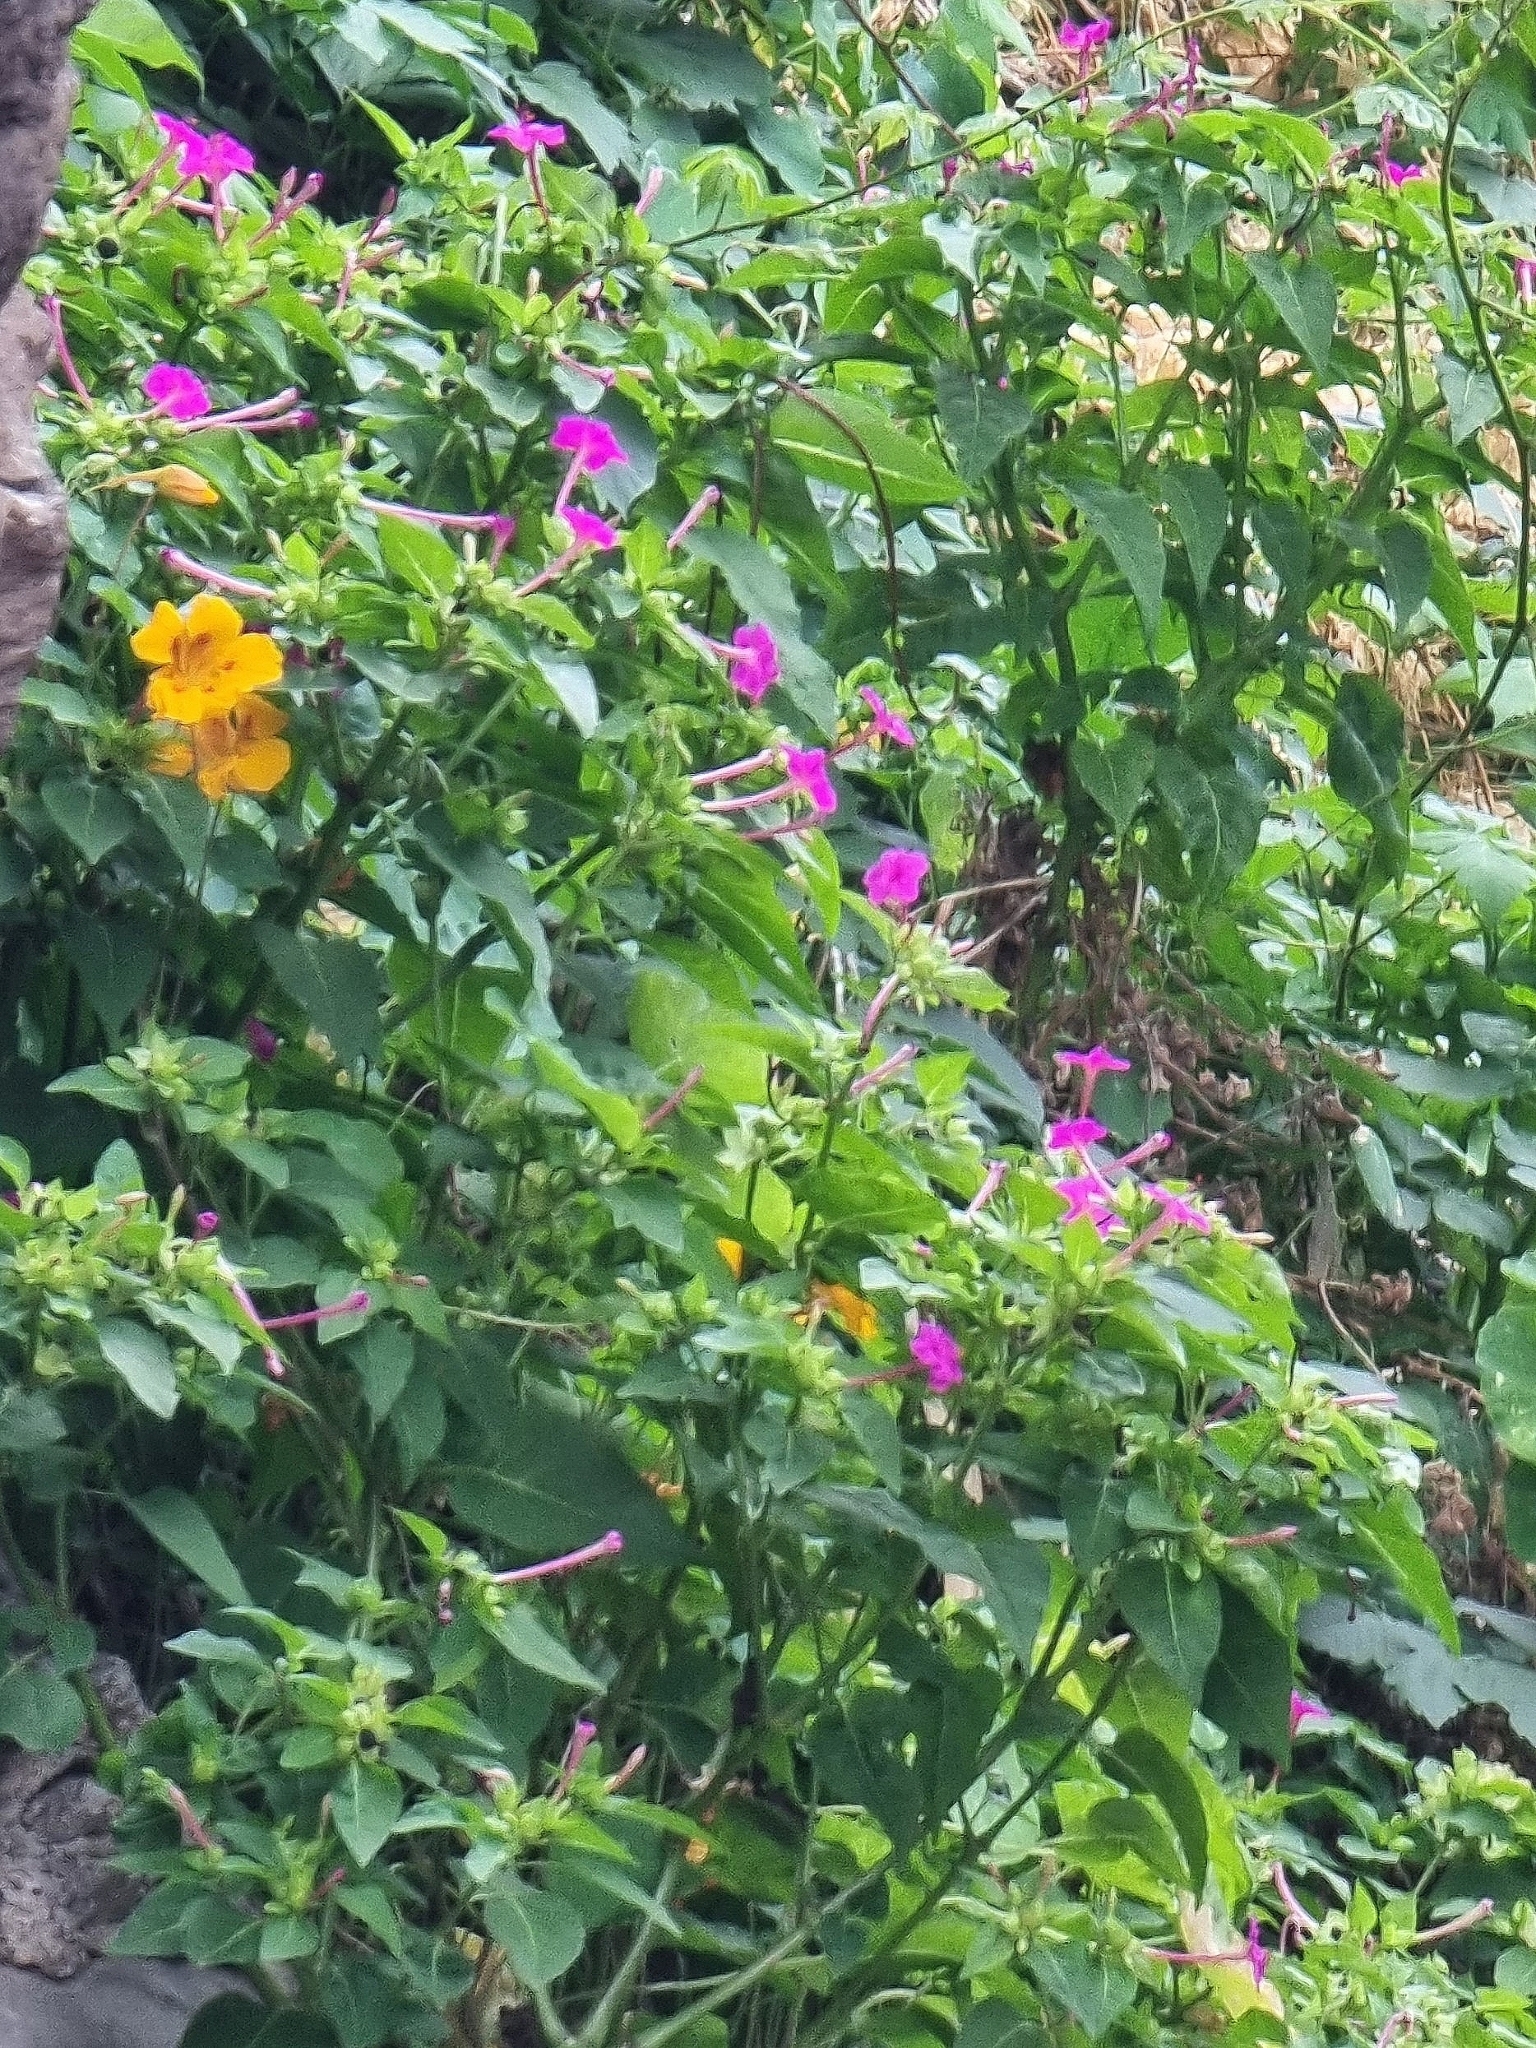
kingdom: Plantae
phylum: Tracheophyta
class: Magnoliopsida
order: Caryophyllales
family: Nyctaginaceae
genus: Mirabilis
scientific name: Mirabilis jalapa
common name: Marvel-of-peru
